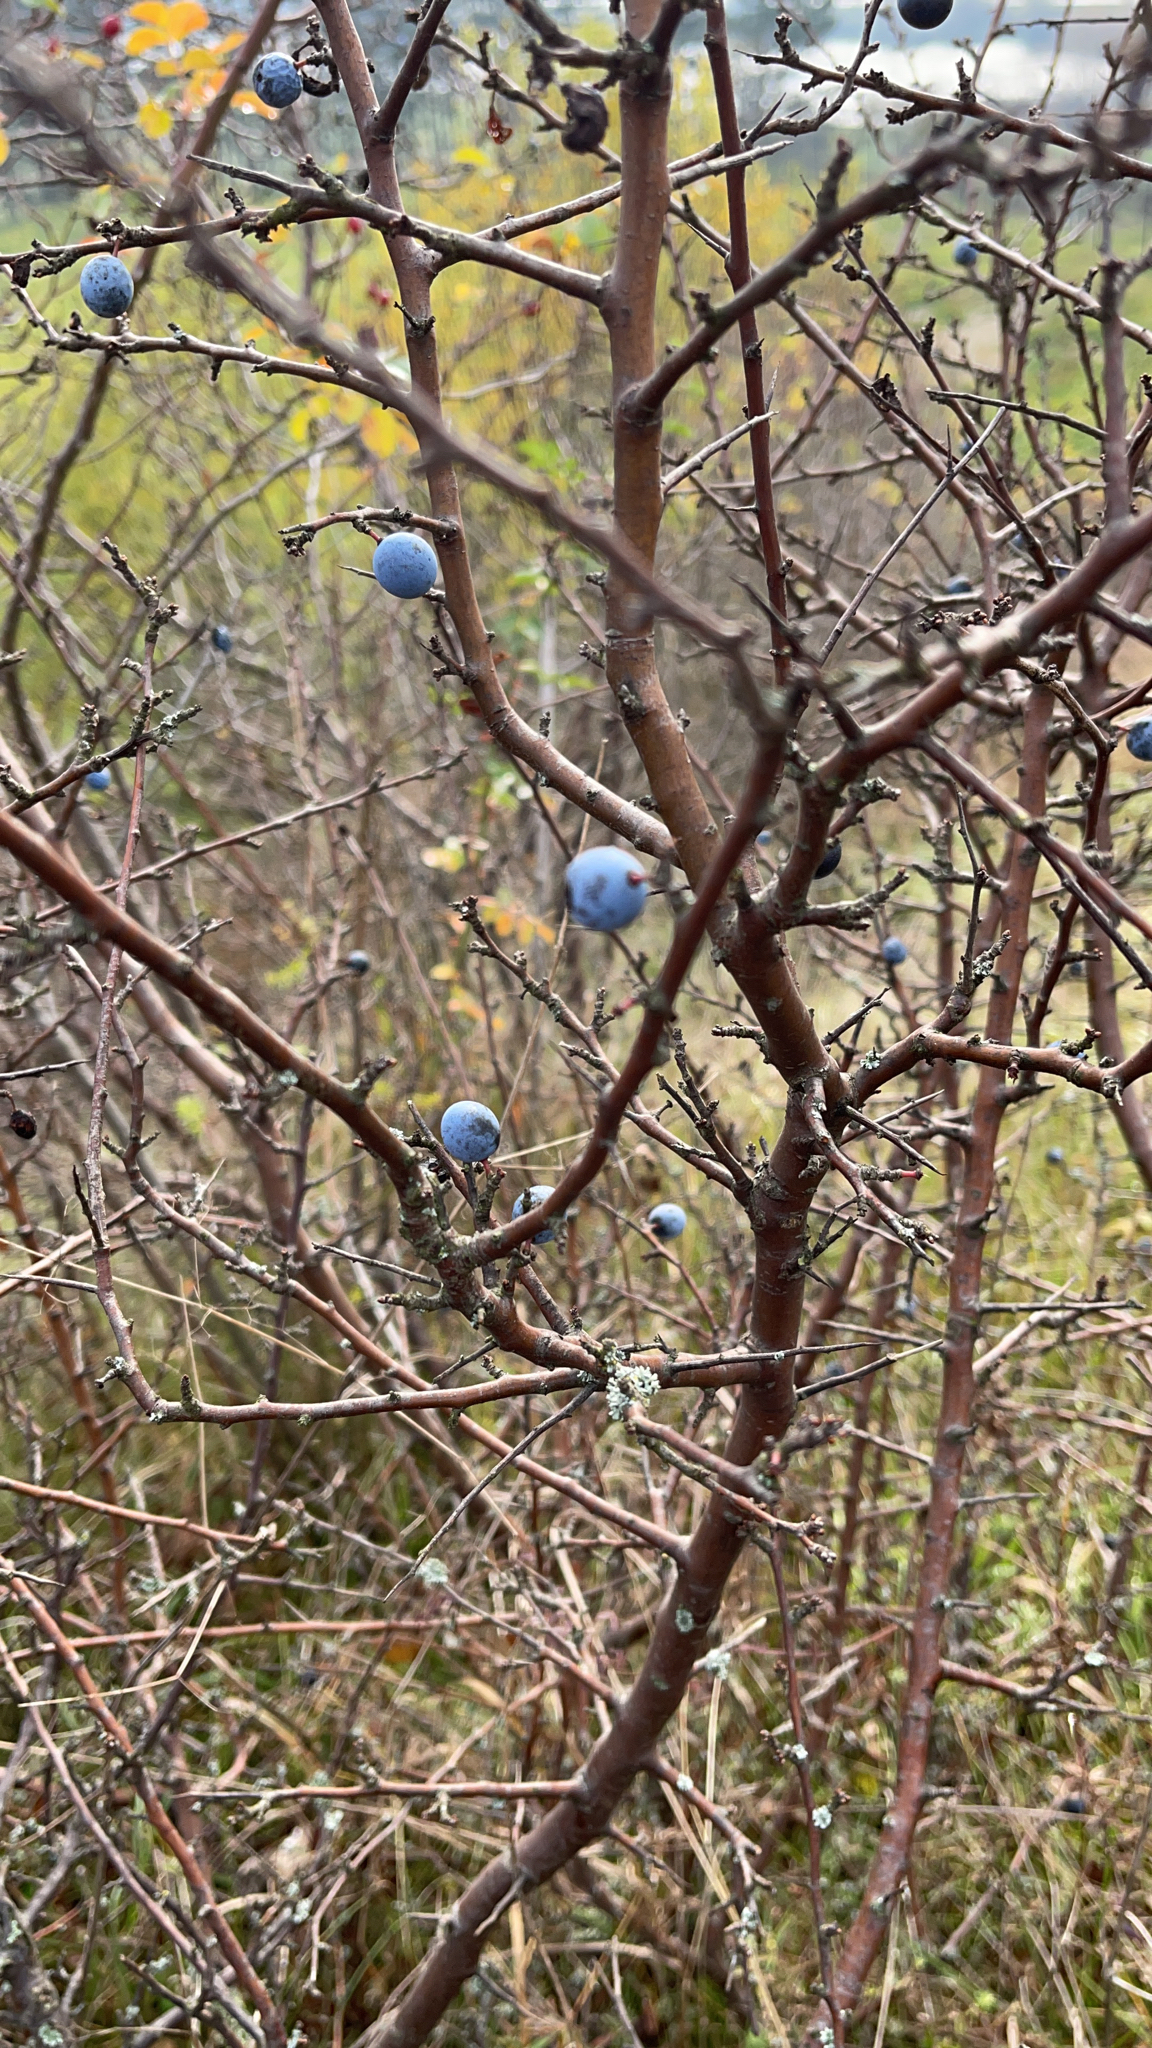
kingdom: Plantae
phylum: Tracheophyta
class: Magnoliopsida
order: Rosales
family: Rosaceae
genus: Prunus
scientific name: Prunus spinosa
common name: Blackthorn
